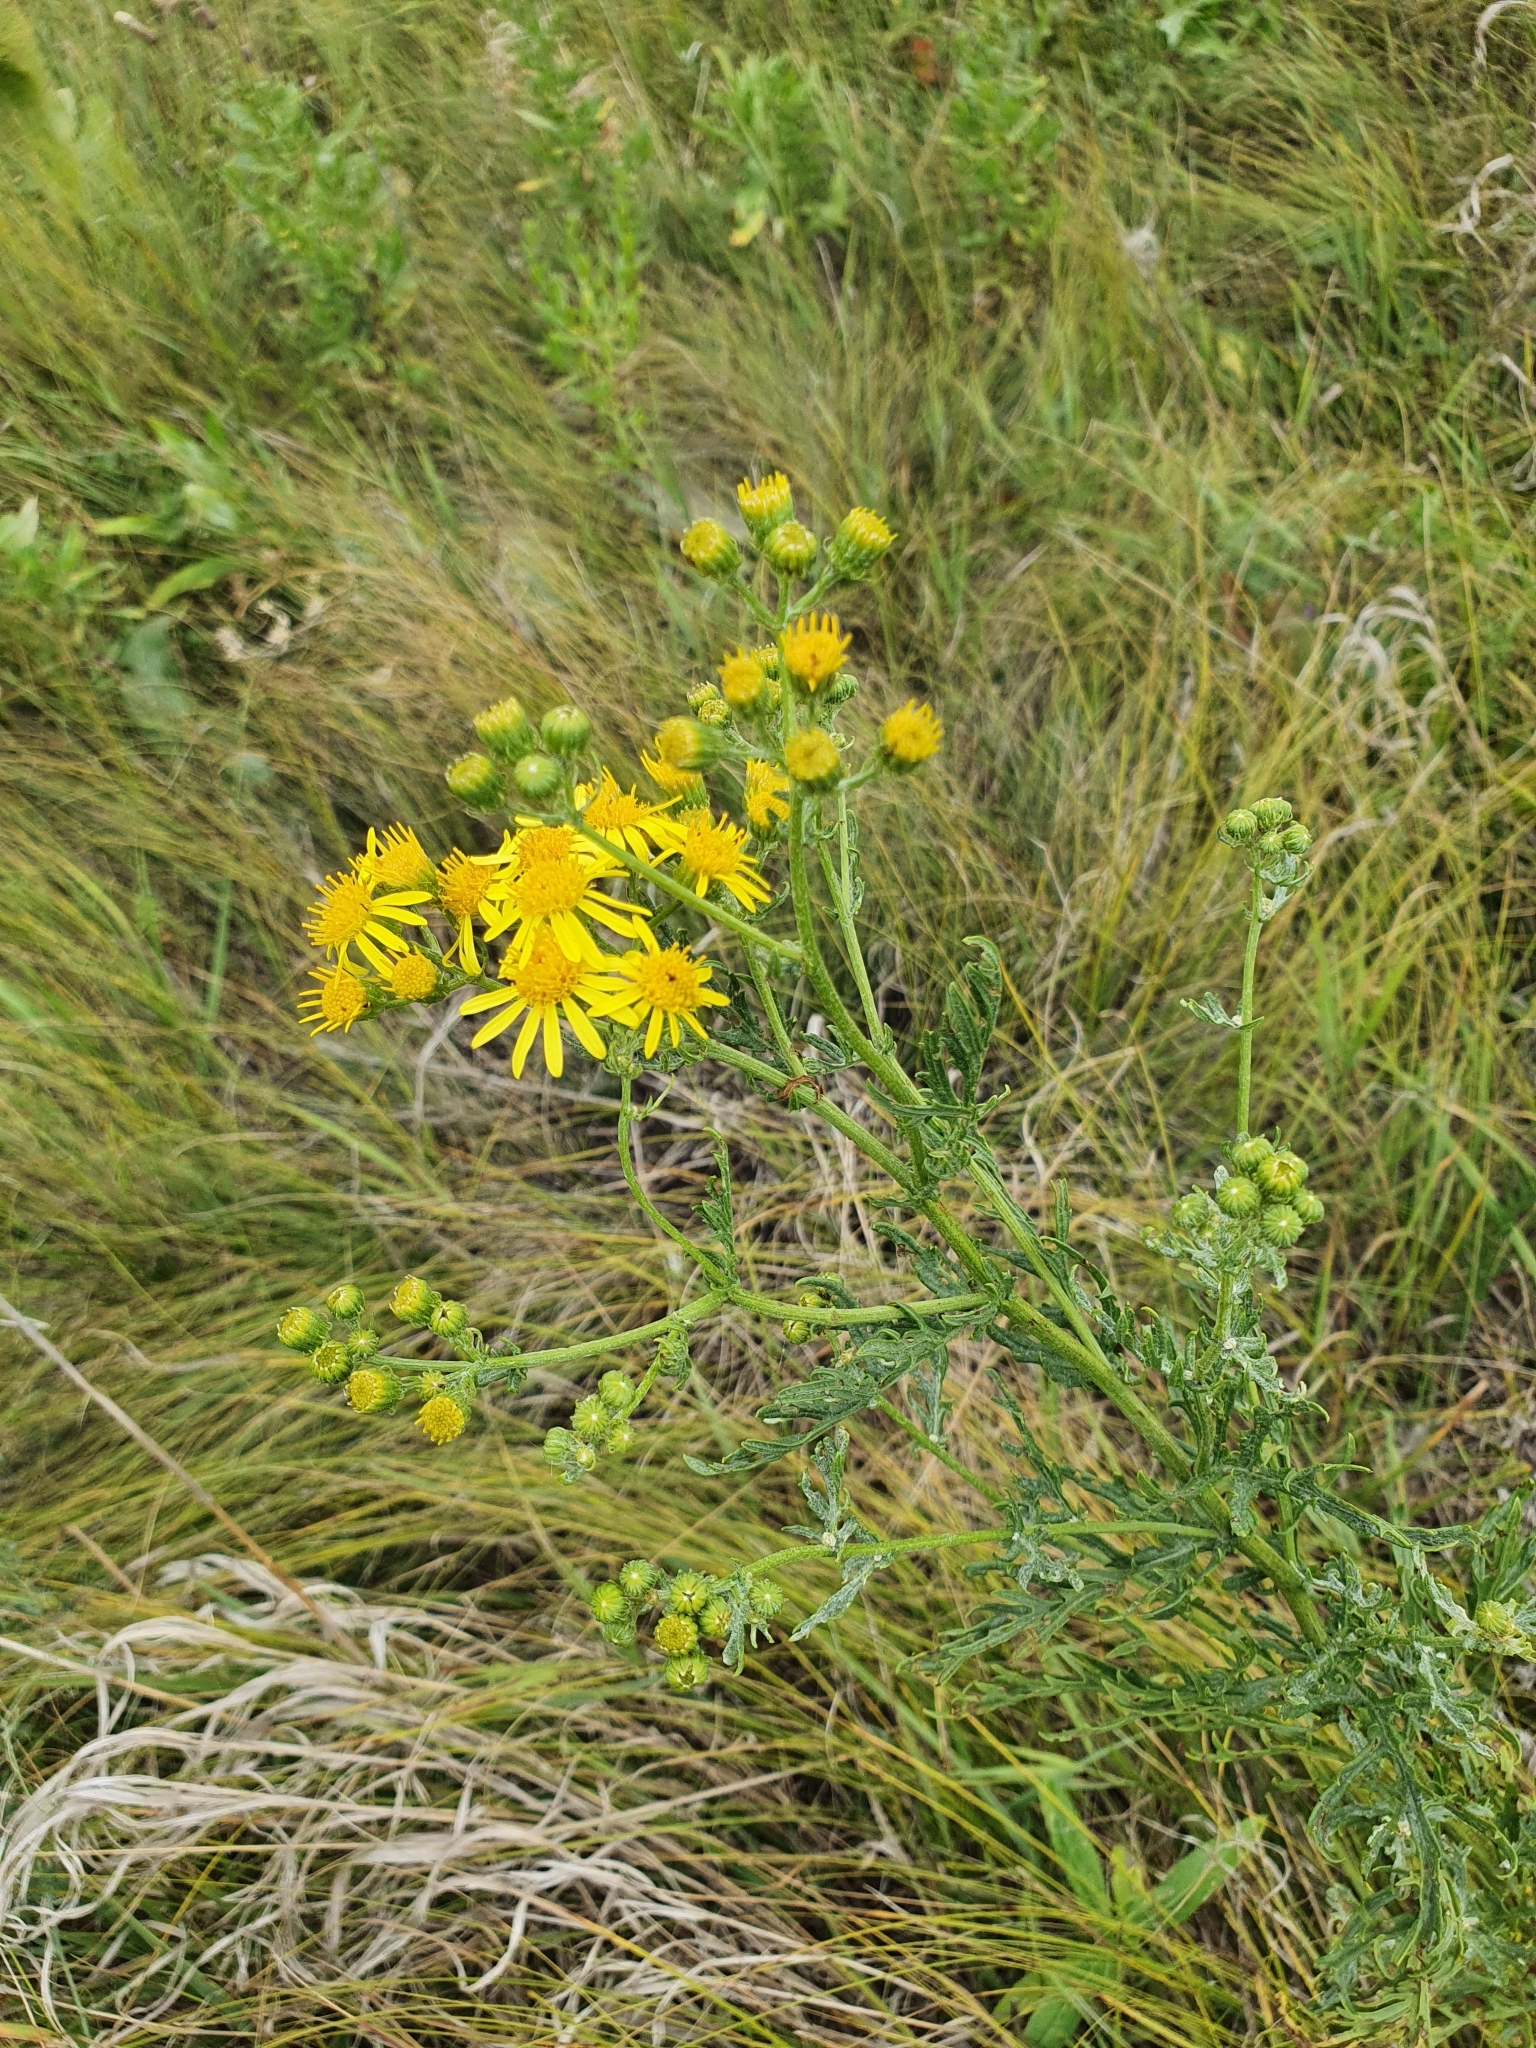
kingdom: Plantae
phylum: Tracheophyta
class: Magnoliopsida
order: Asterales
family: Asteraceae
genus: Jacobaea
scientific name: Jacobaea vulgaris
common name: Stinking willie
